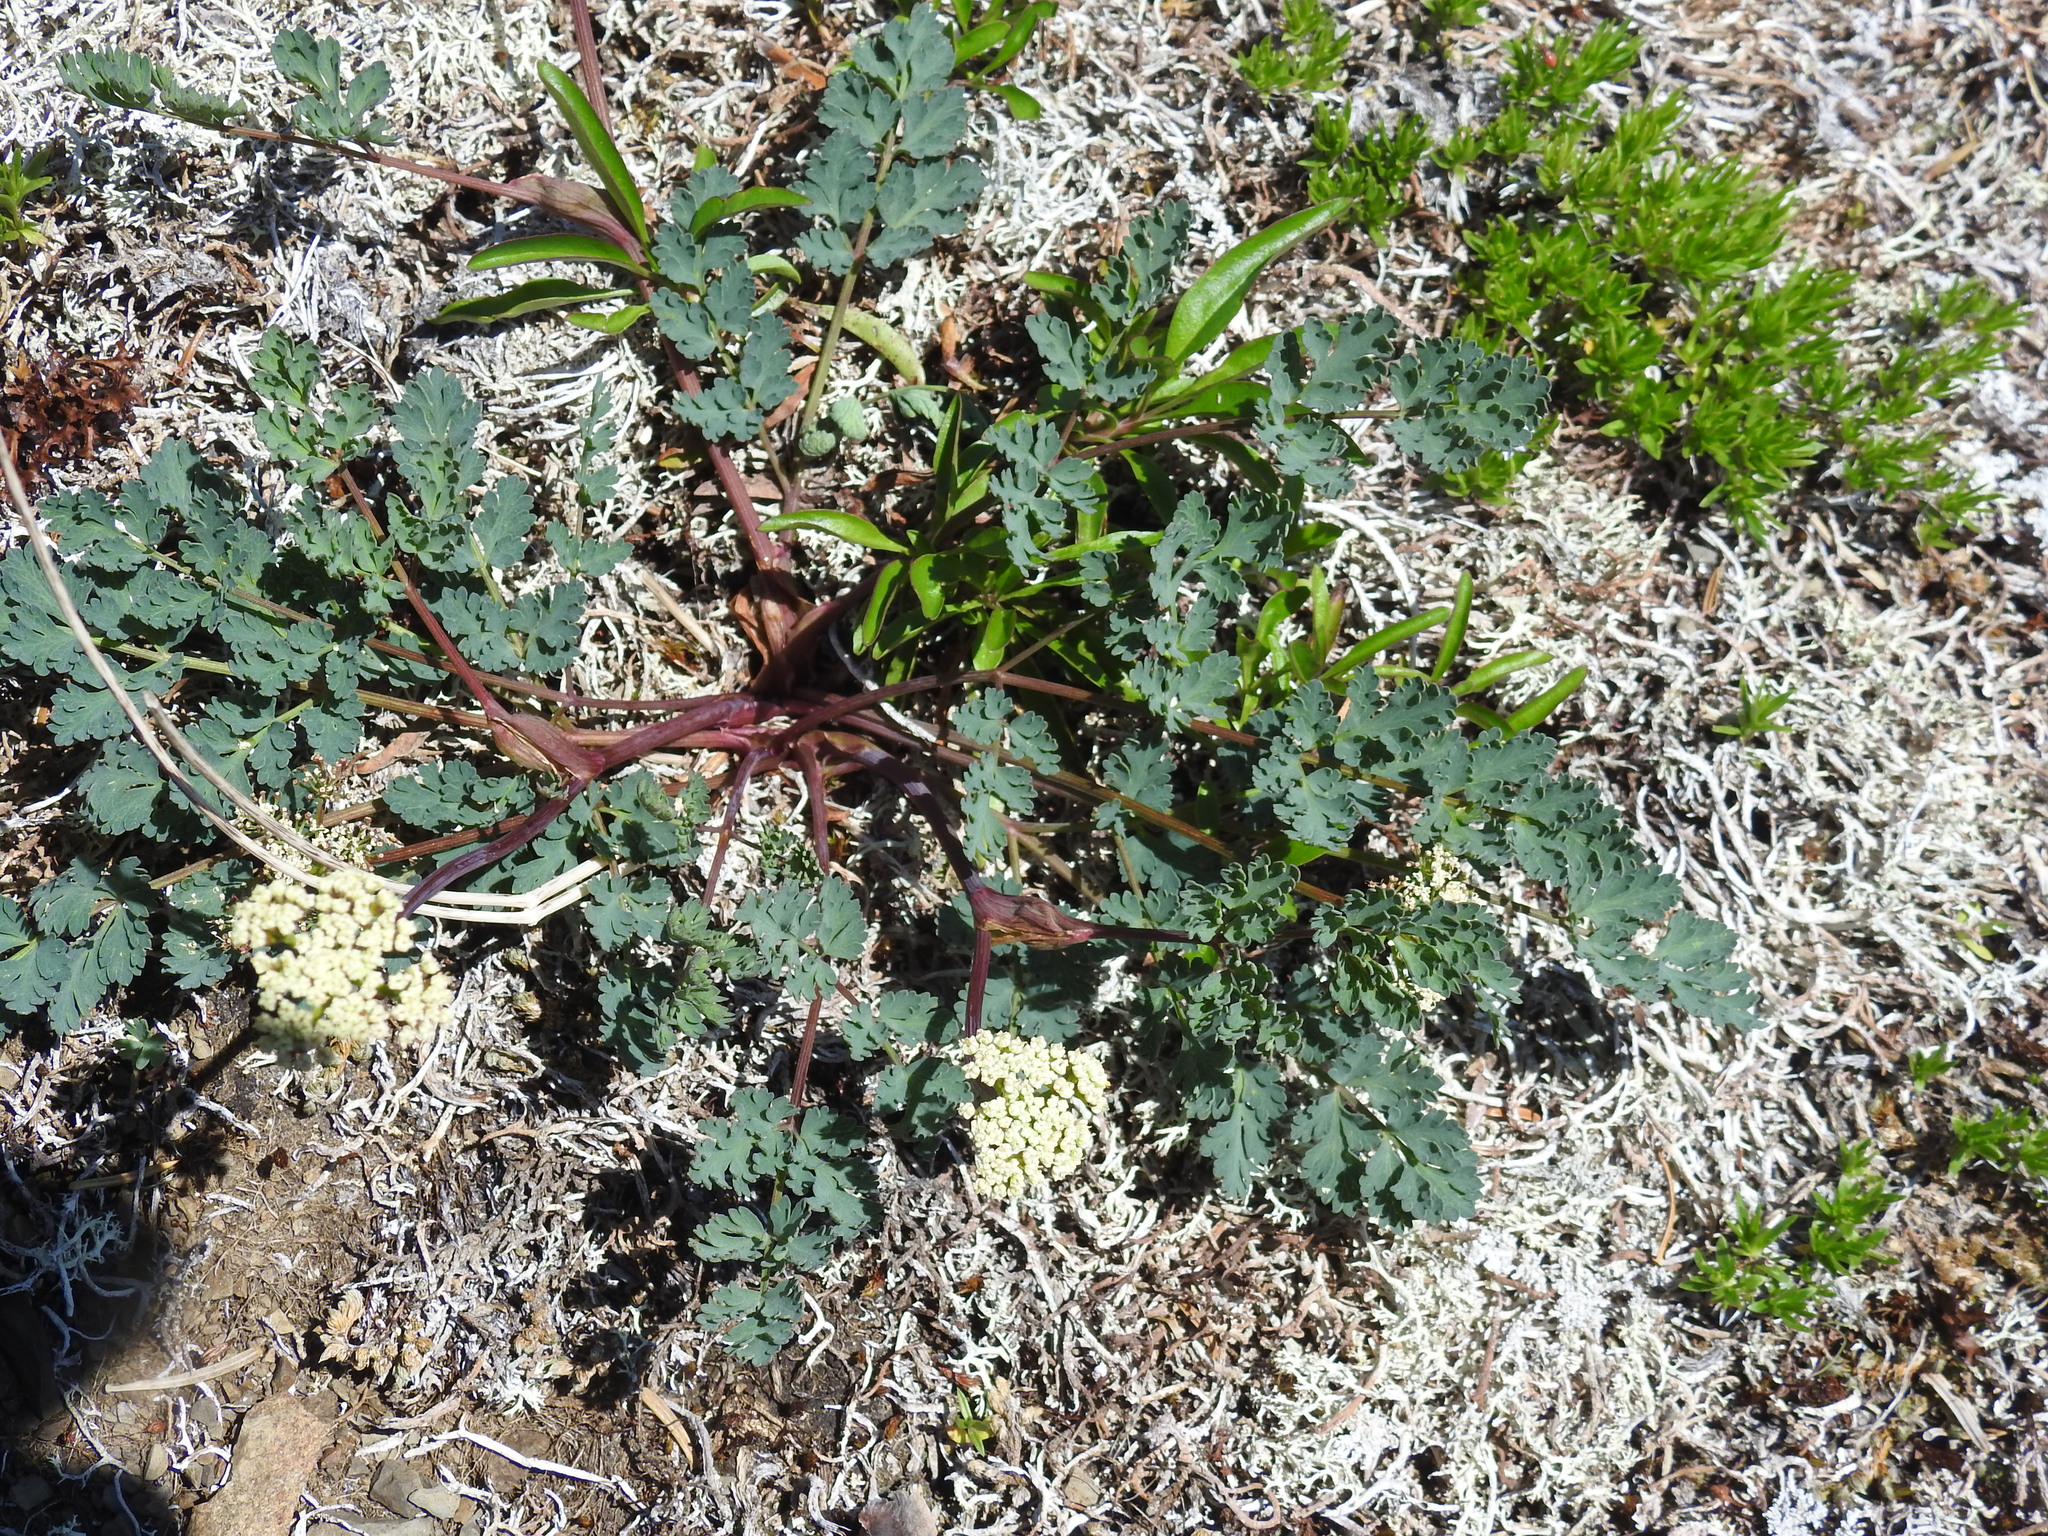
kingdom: Plantae
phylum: Tracheophyta
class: Magnoliopsida
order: Apiales
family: Apiaceae
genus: Lomatium
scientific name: Lomatium martindalei
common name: Cascade desert-parsley
